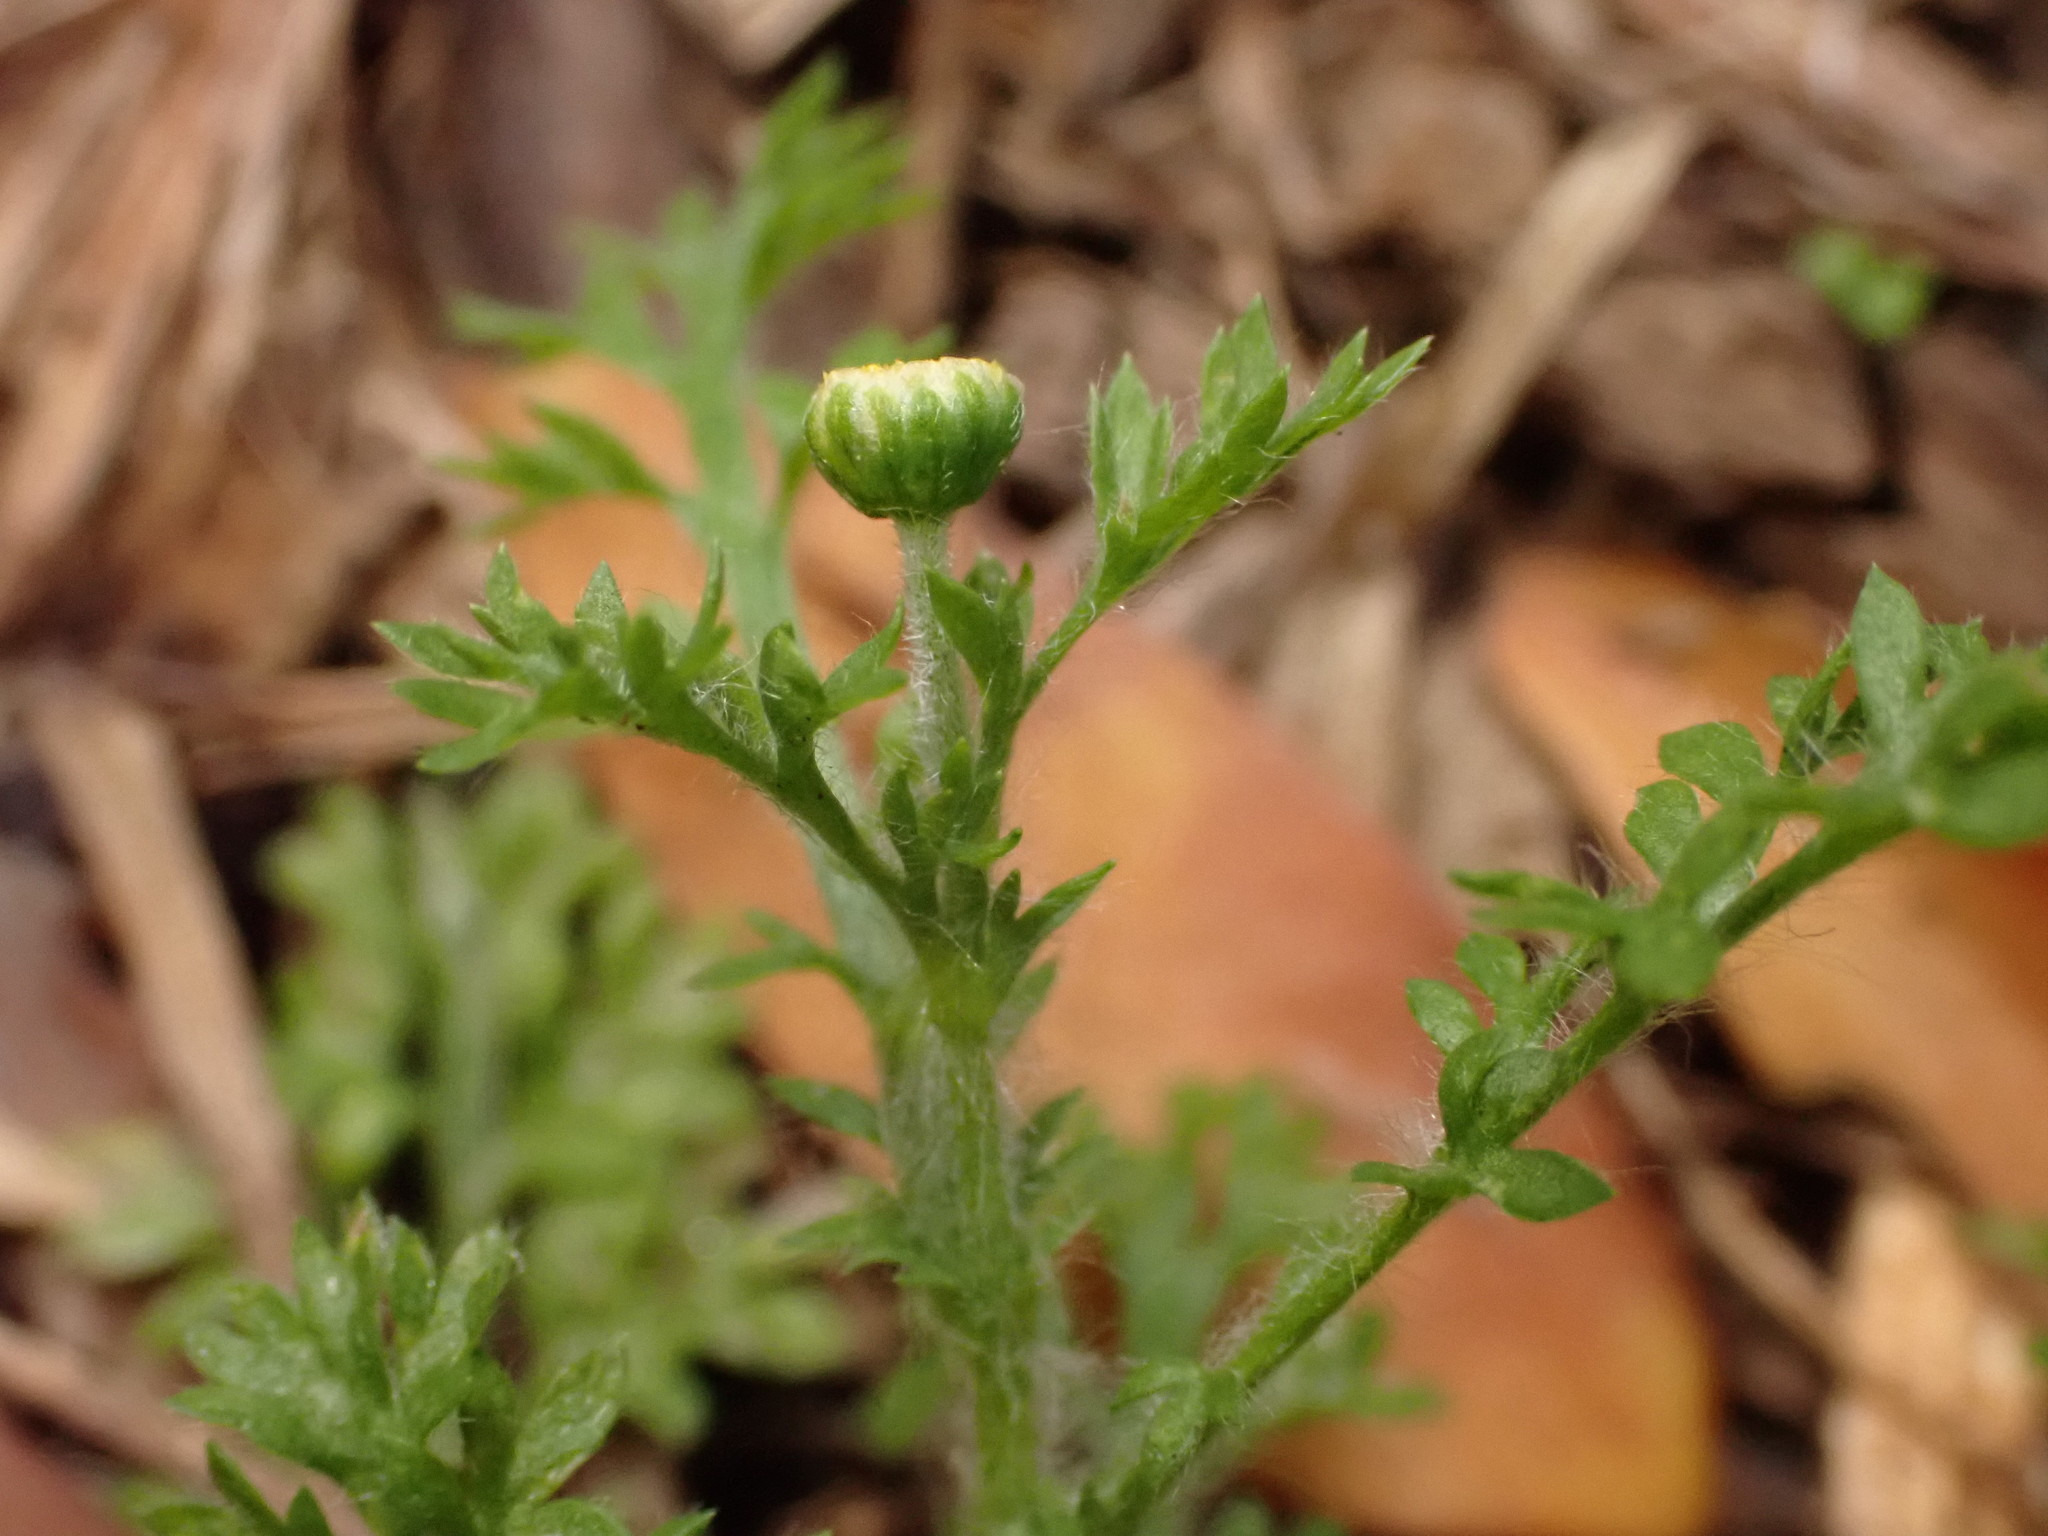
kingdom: Plantae
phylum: Tracheophyta
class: Magnoliopsida
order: Asterales
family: Asteraceae
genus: Cotula
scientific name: Cotula australis
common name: Australian waterbuttons
